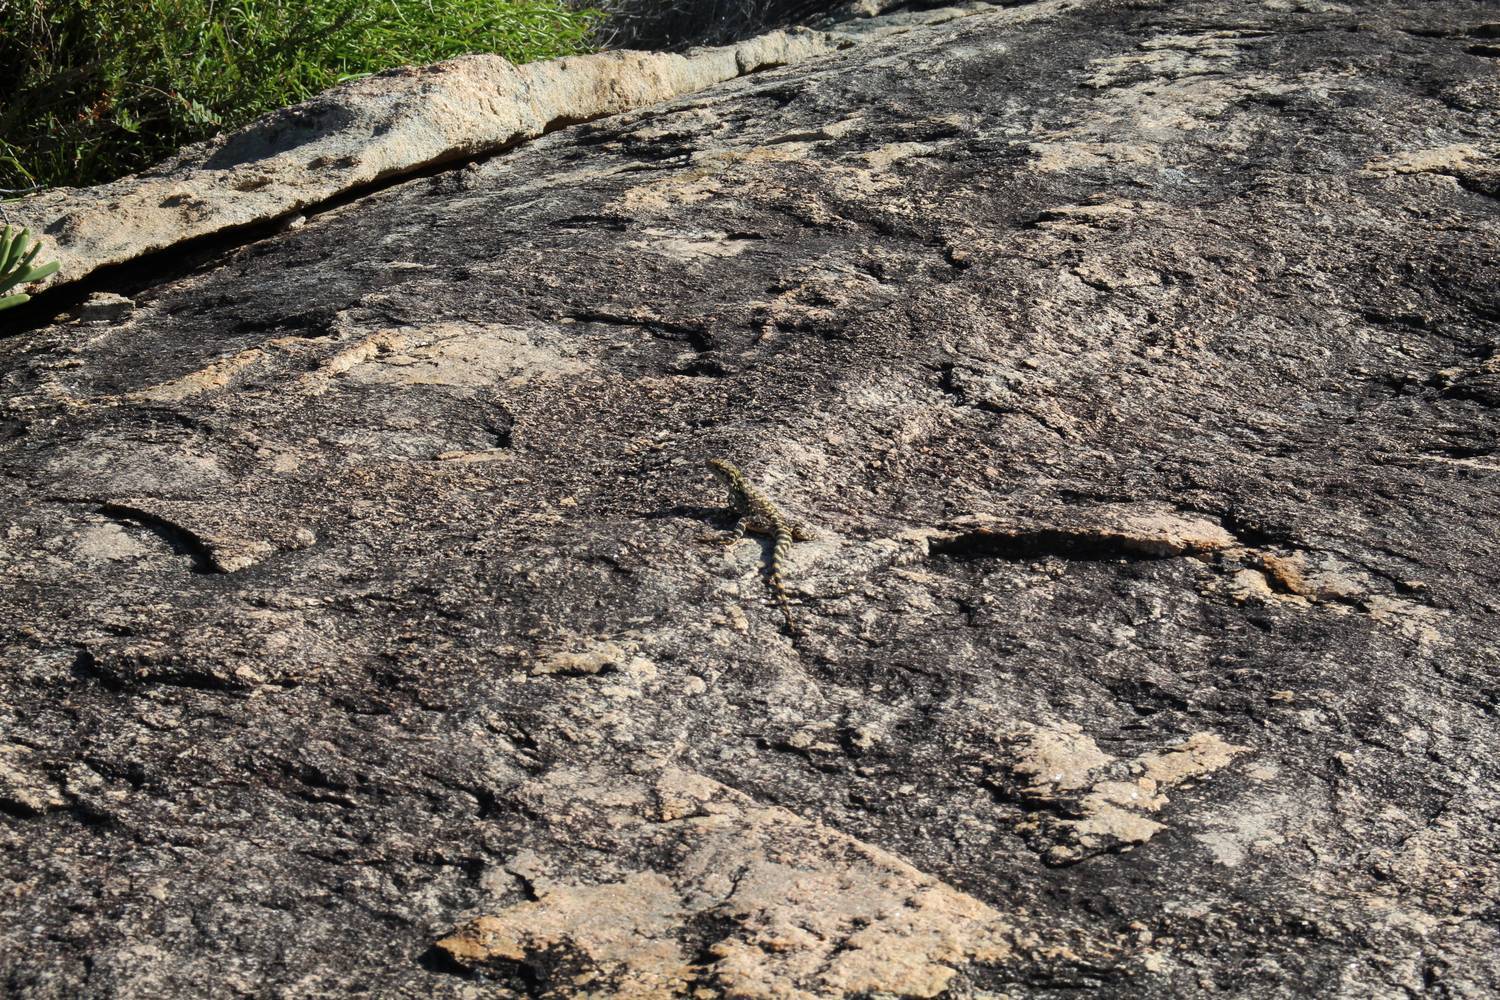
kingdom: Animalia
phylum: Chordata
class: Squamata
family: Agamidae
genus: Ctenophorus
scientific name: Ctenophorus ornatus
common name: Ornate crevice-dragon
